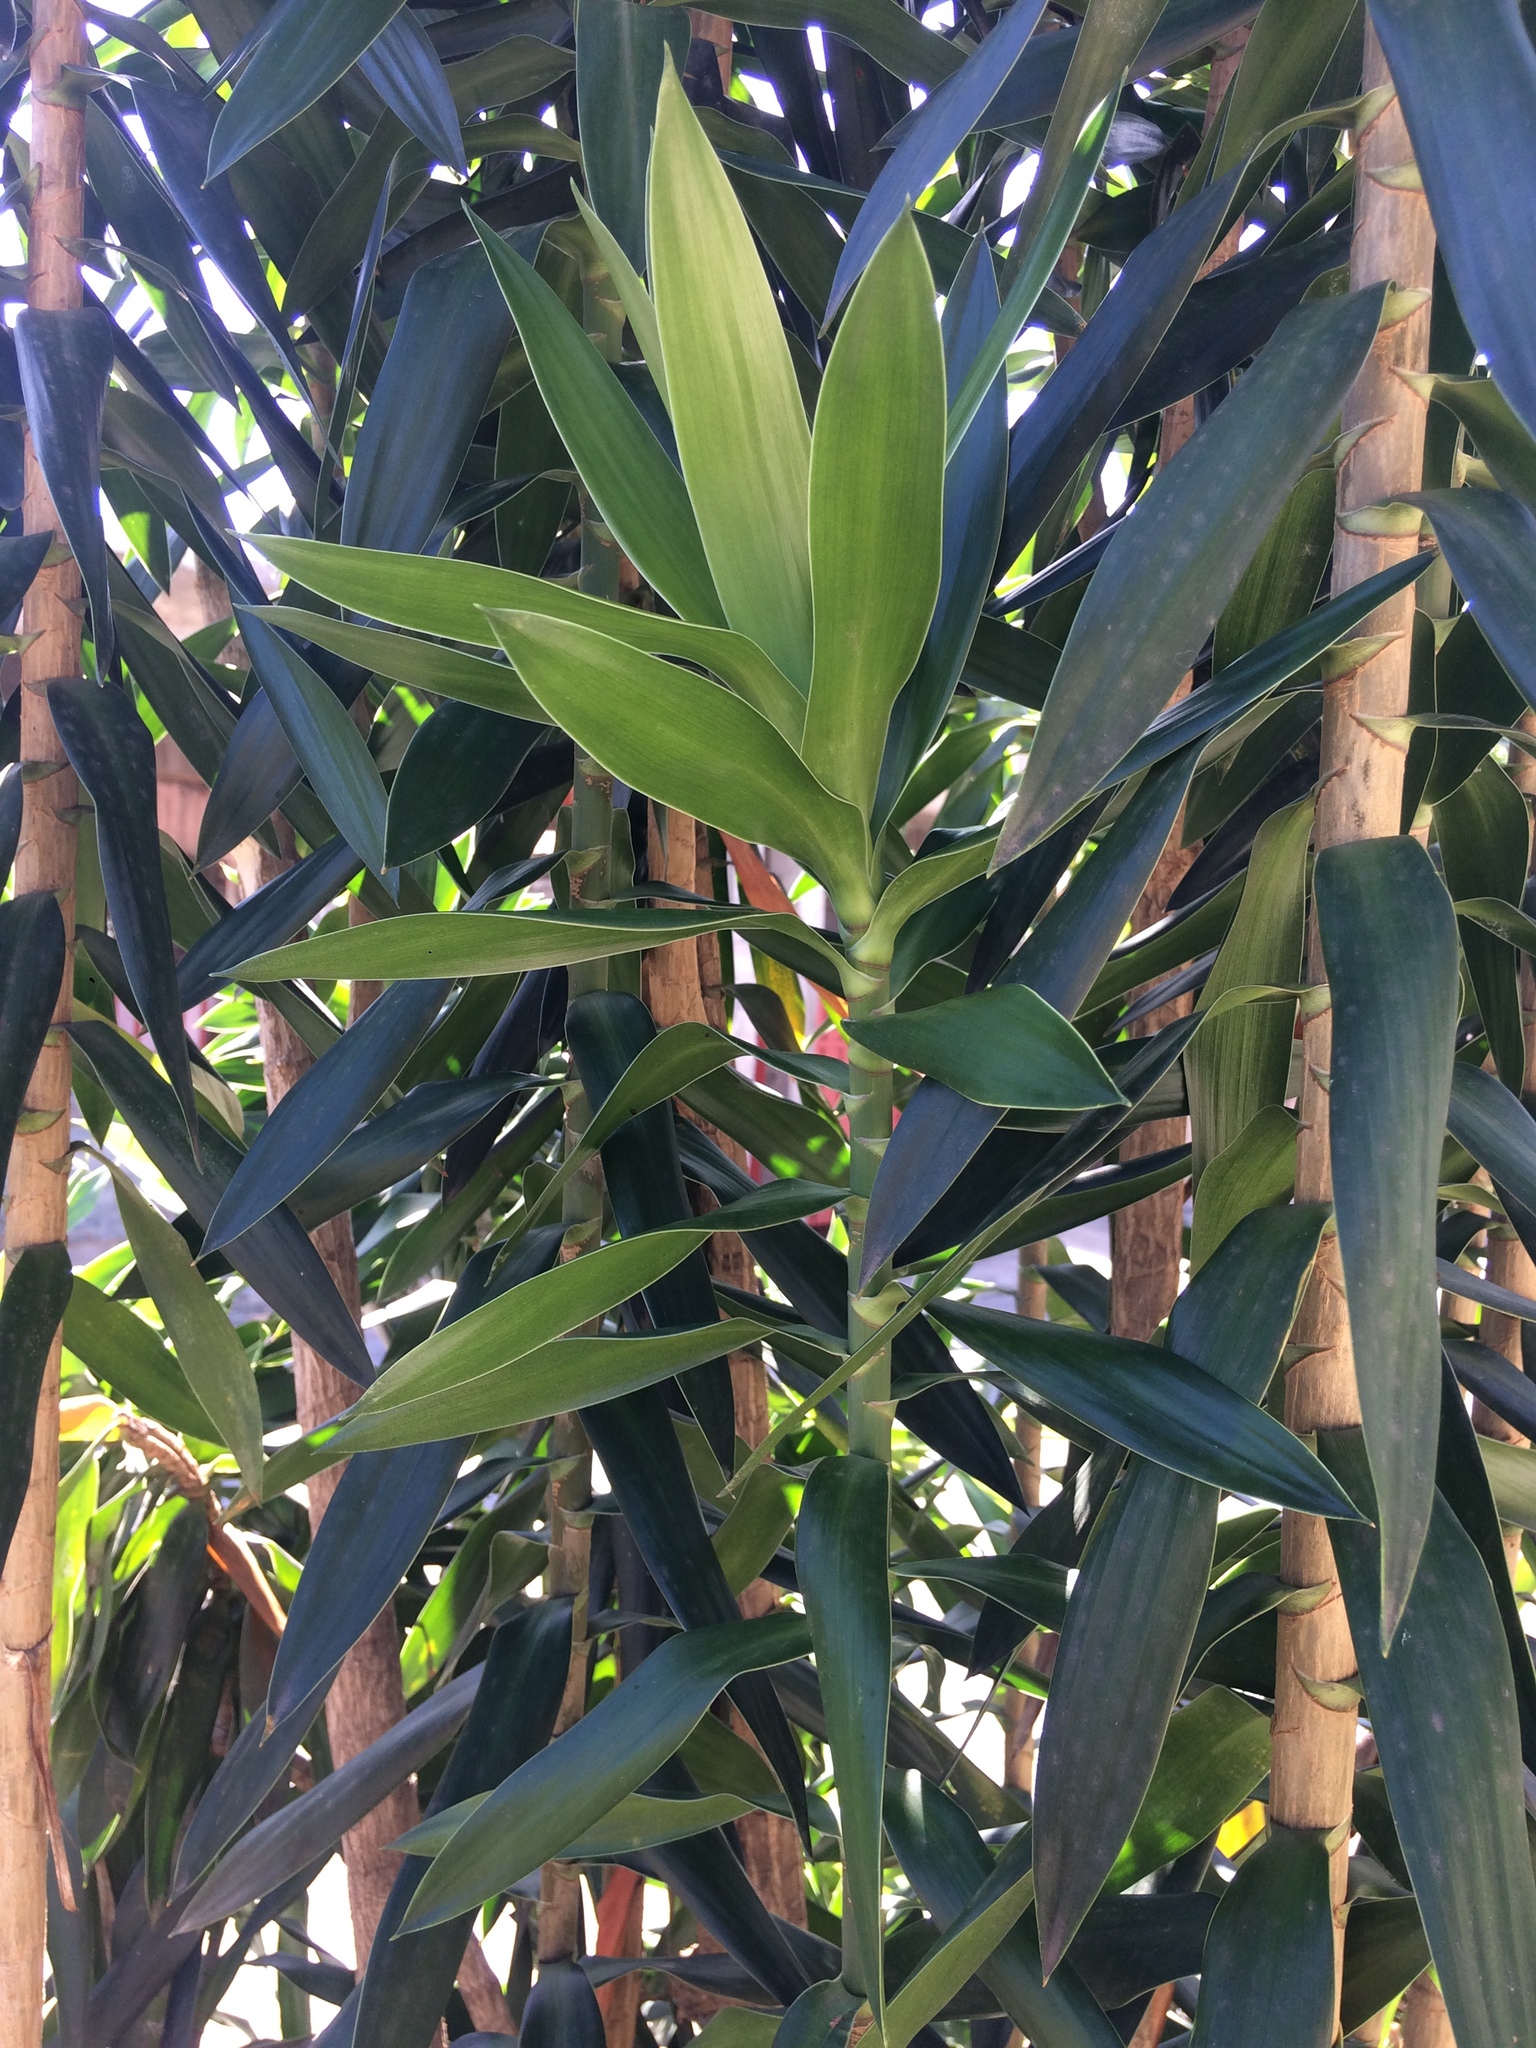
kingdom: Plantae
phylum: Tracheophyta
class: Liliopsida
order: Asparagales
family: Asparagaceae
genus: Dracaena
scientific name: Dracaena reflexa
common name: Song-of-india
